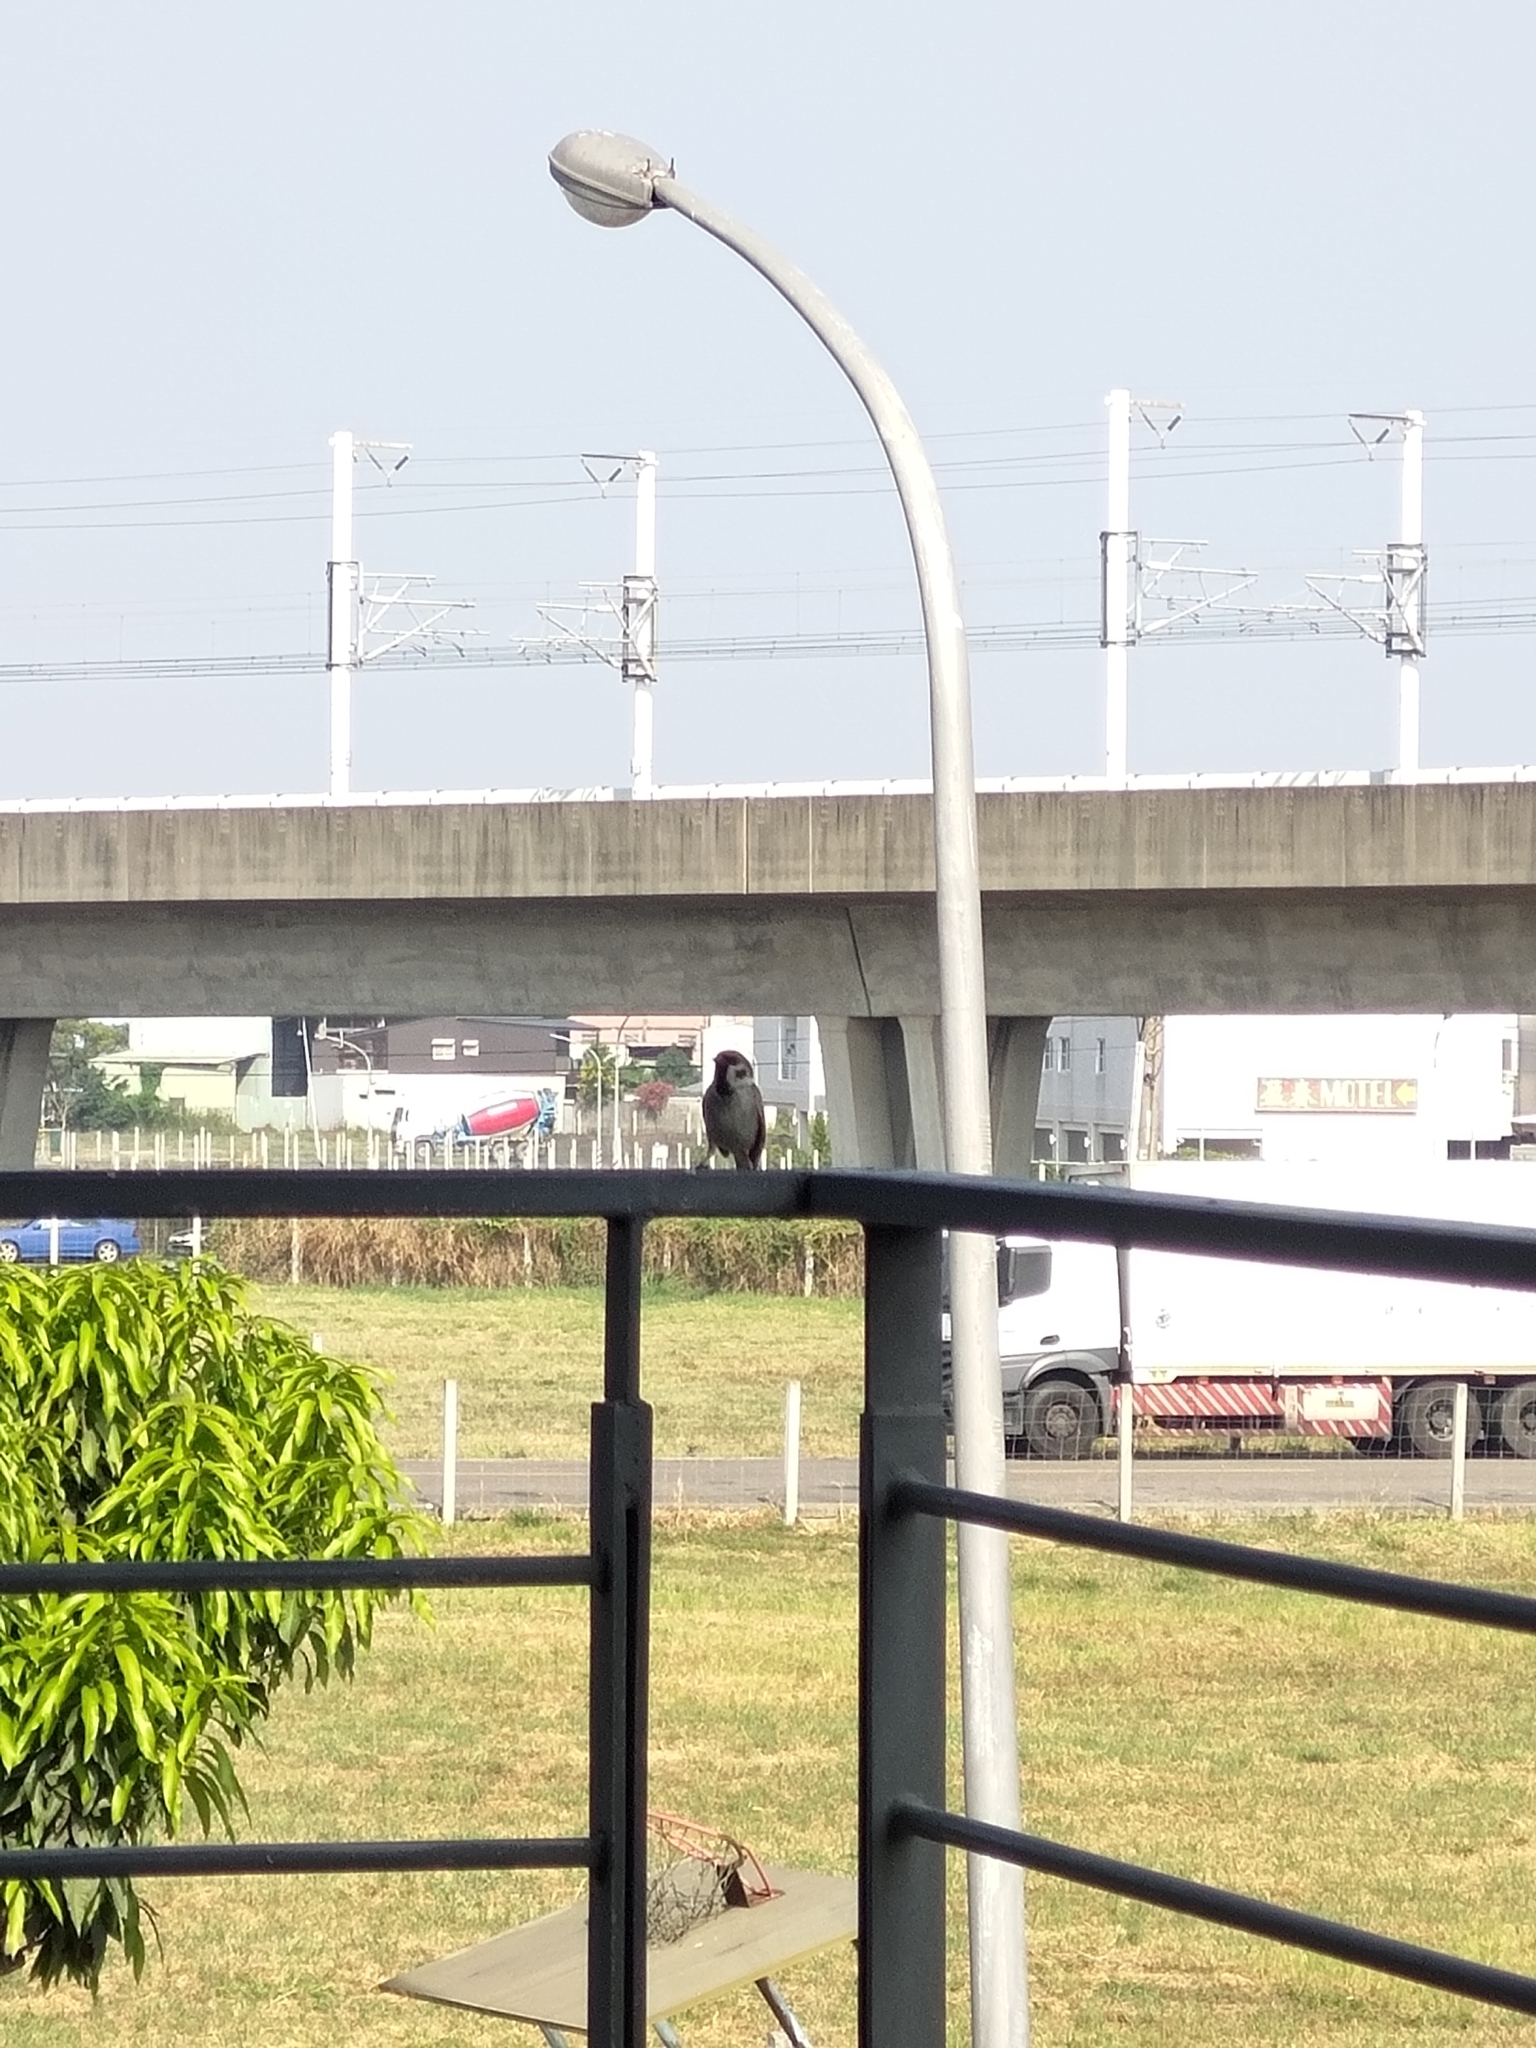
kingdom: Animalia
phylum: Chordata
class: Aves
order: Passeriformes
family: Passeridae
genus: Passer
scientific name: Passer montanus
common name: Eurasian tree sparrow
